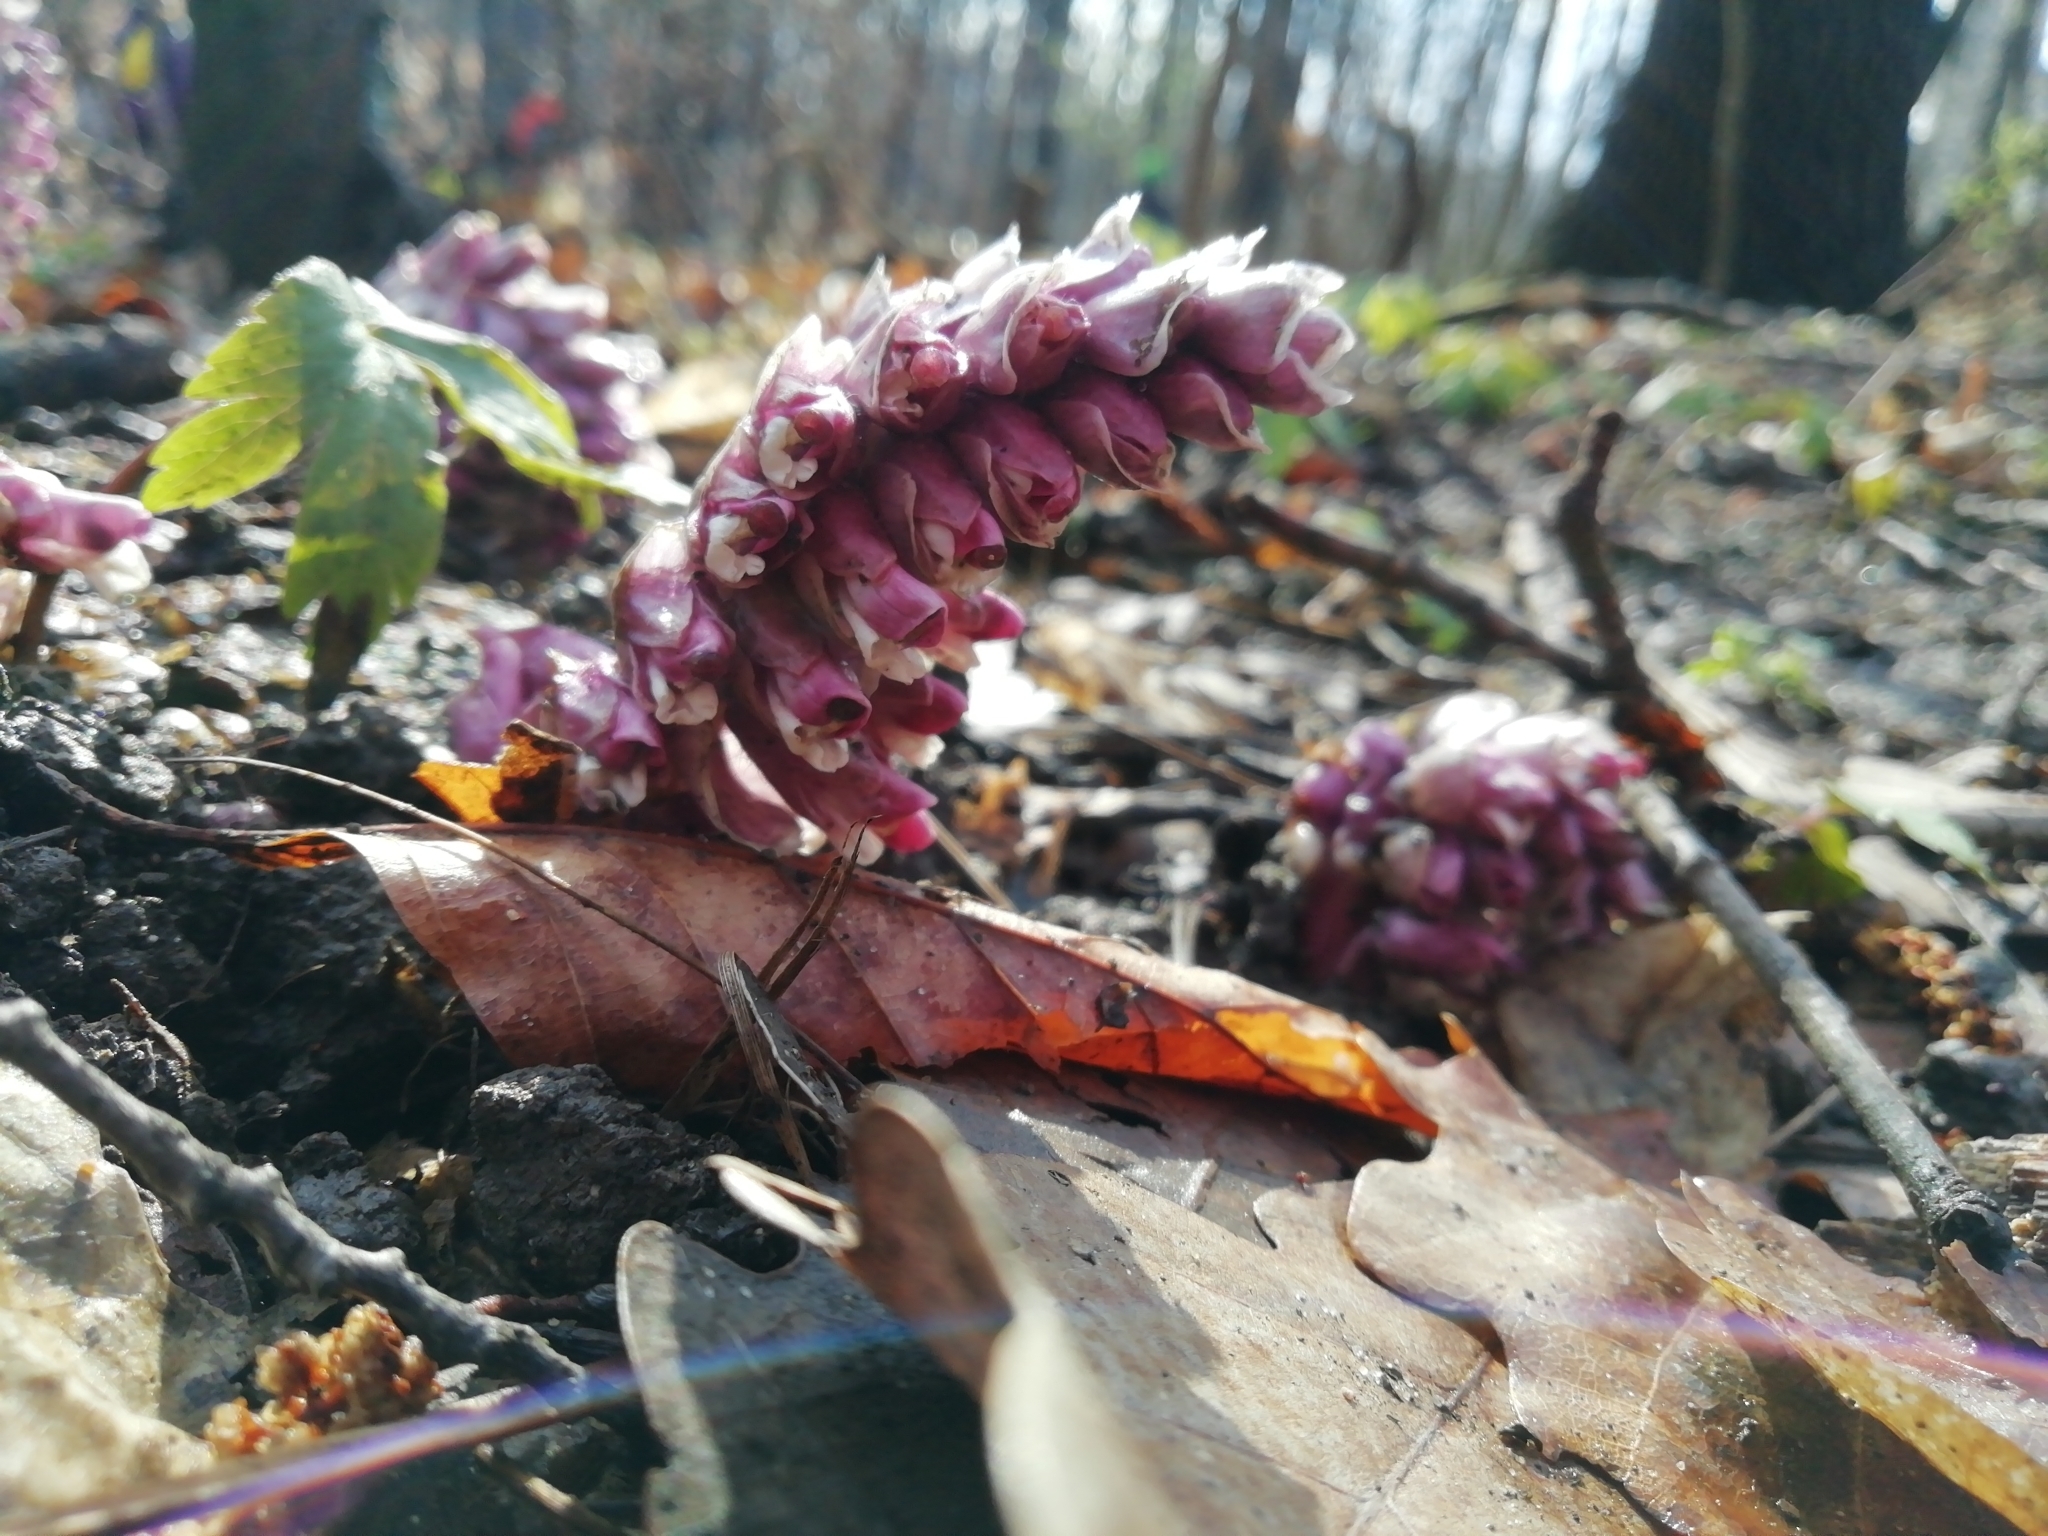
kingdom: Plantae
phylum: Tracheophyta
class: Magnoliopsida
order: Lamiales
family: Orobanchaceae
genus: Lathraea
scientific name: Lathraea squamaria
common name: Toothwort
